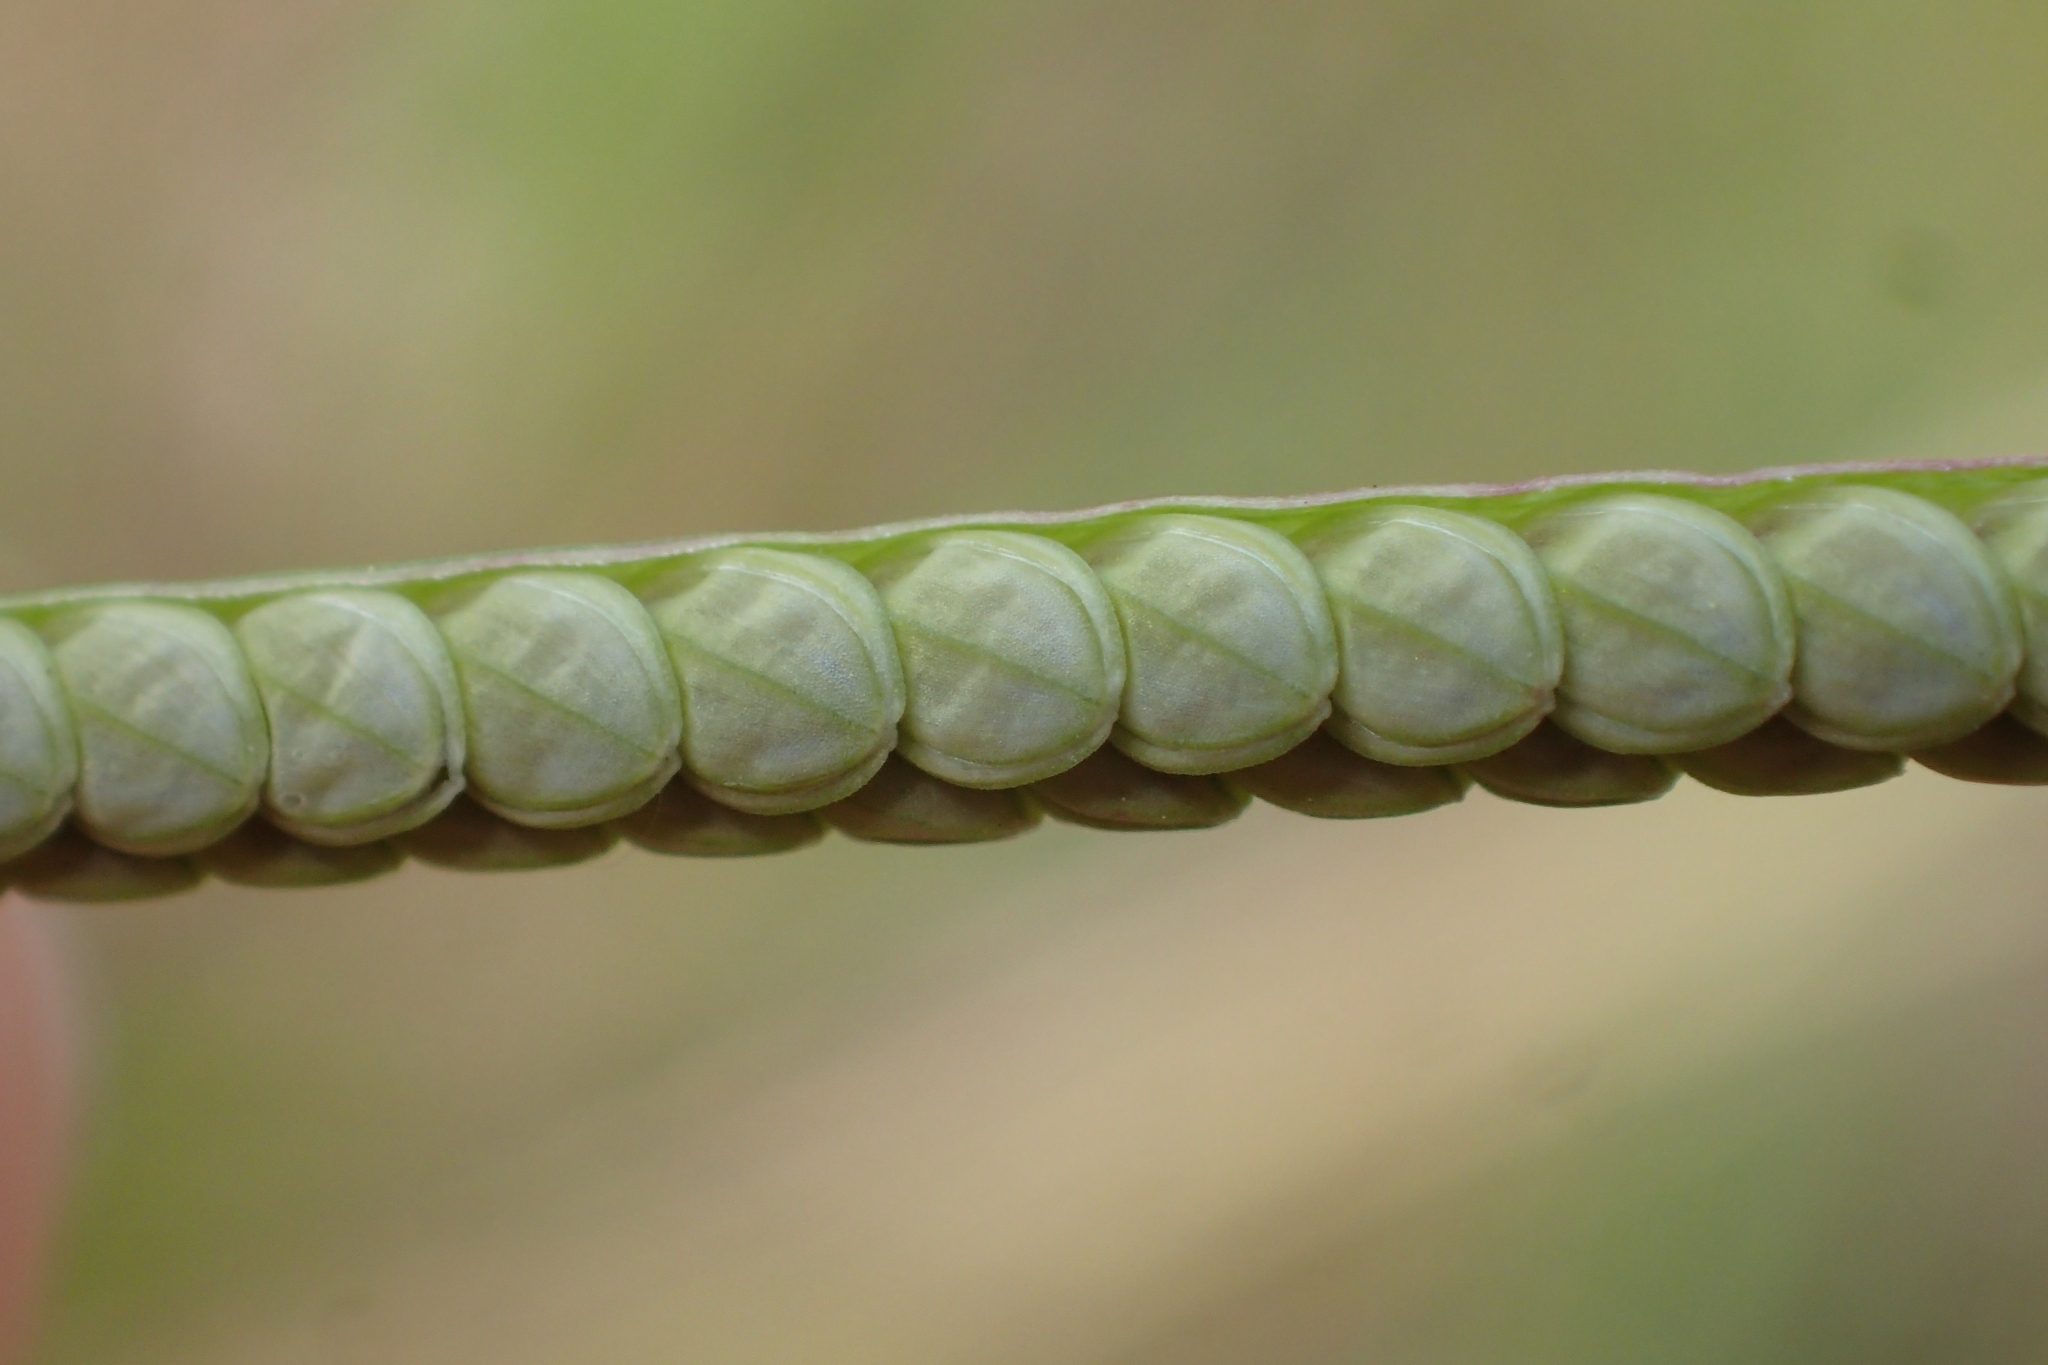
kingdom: Plantae
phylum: Tracheophyta
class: Liliopsida
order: Poales
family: Poaceae
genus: Paspalum
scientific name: Paspalum orbiculare
